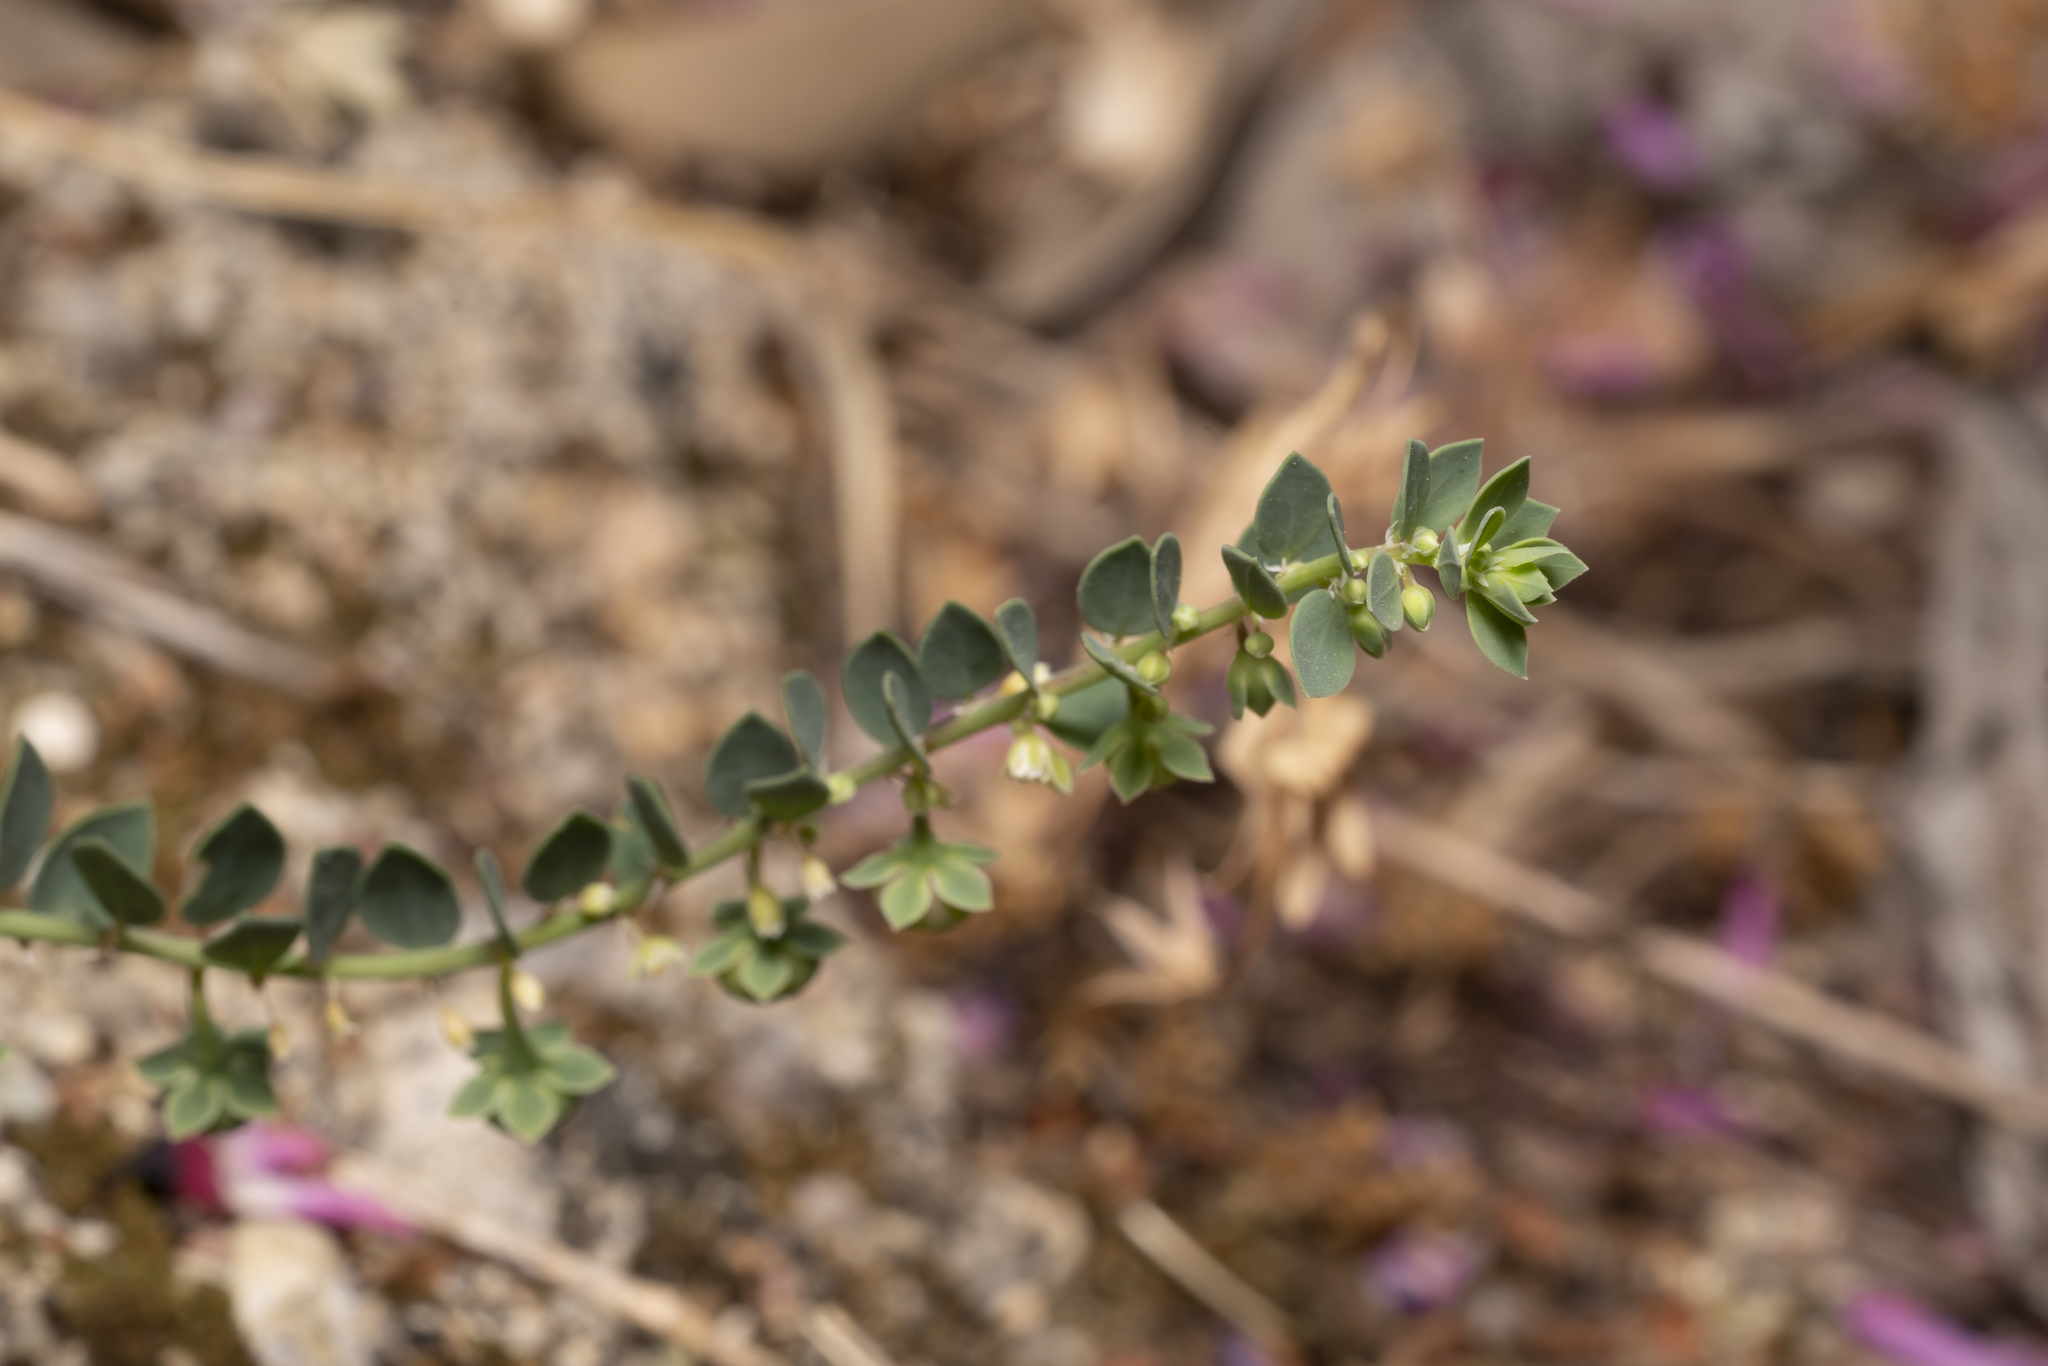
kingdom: Plantae
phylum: Tracheophyta
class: Magnoliopsida
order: Malpighiales
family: Phyllanthaceae
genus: Andrachne
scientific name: Andrachne telephioides
